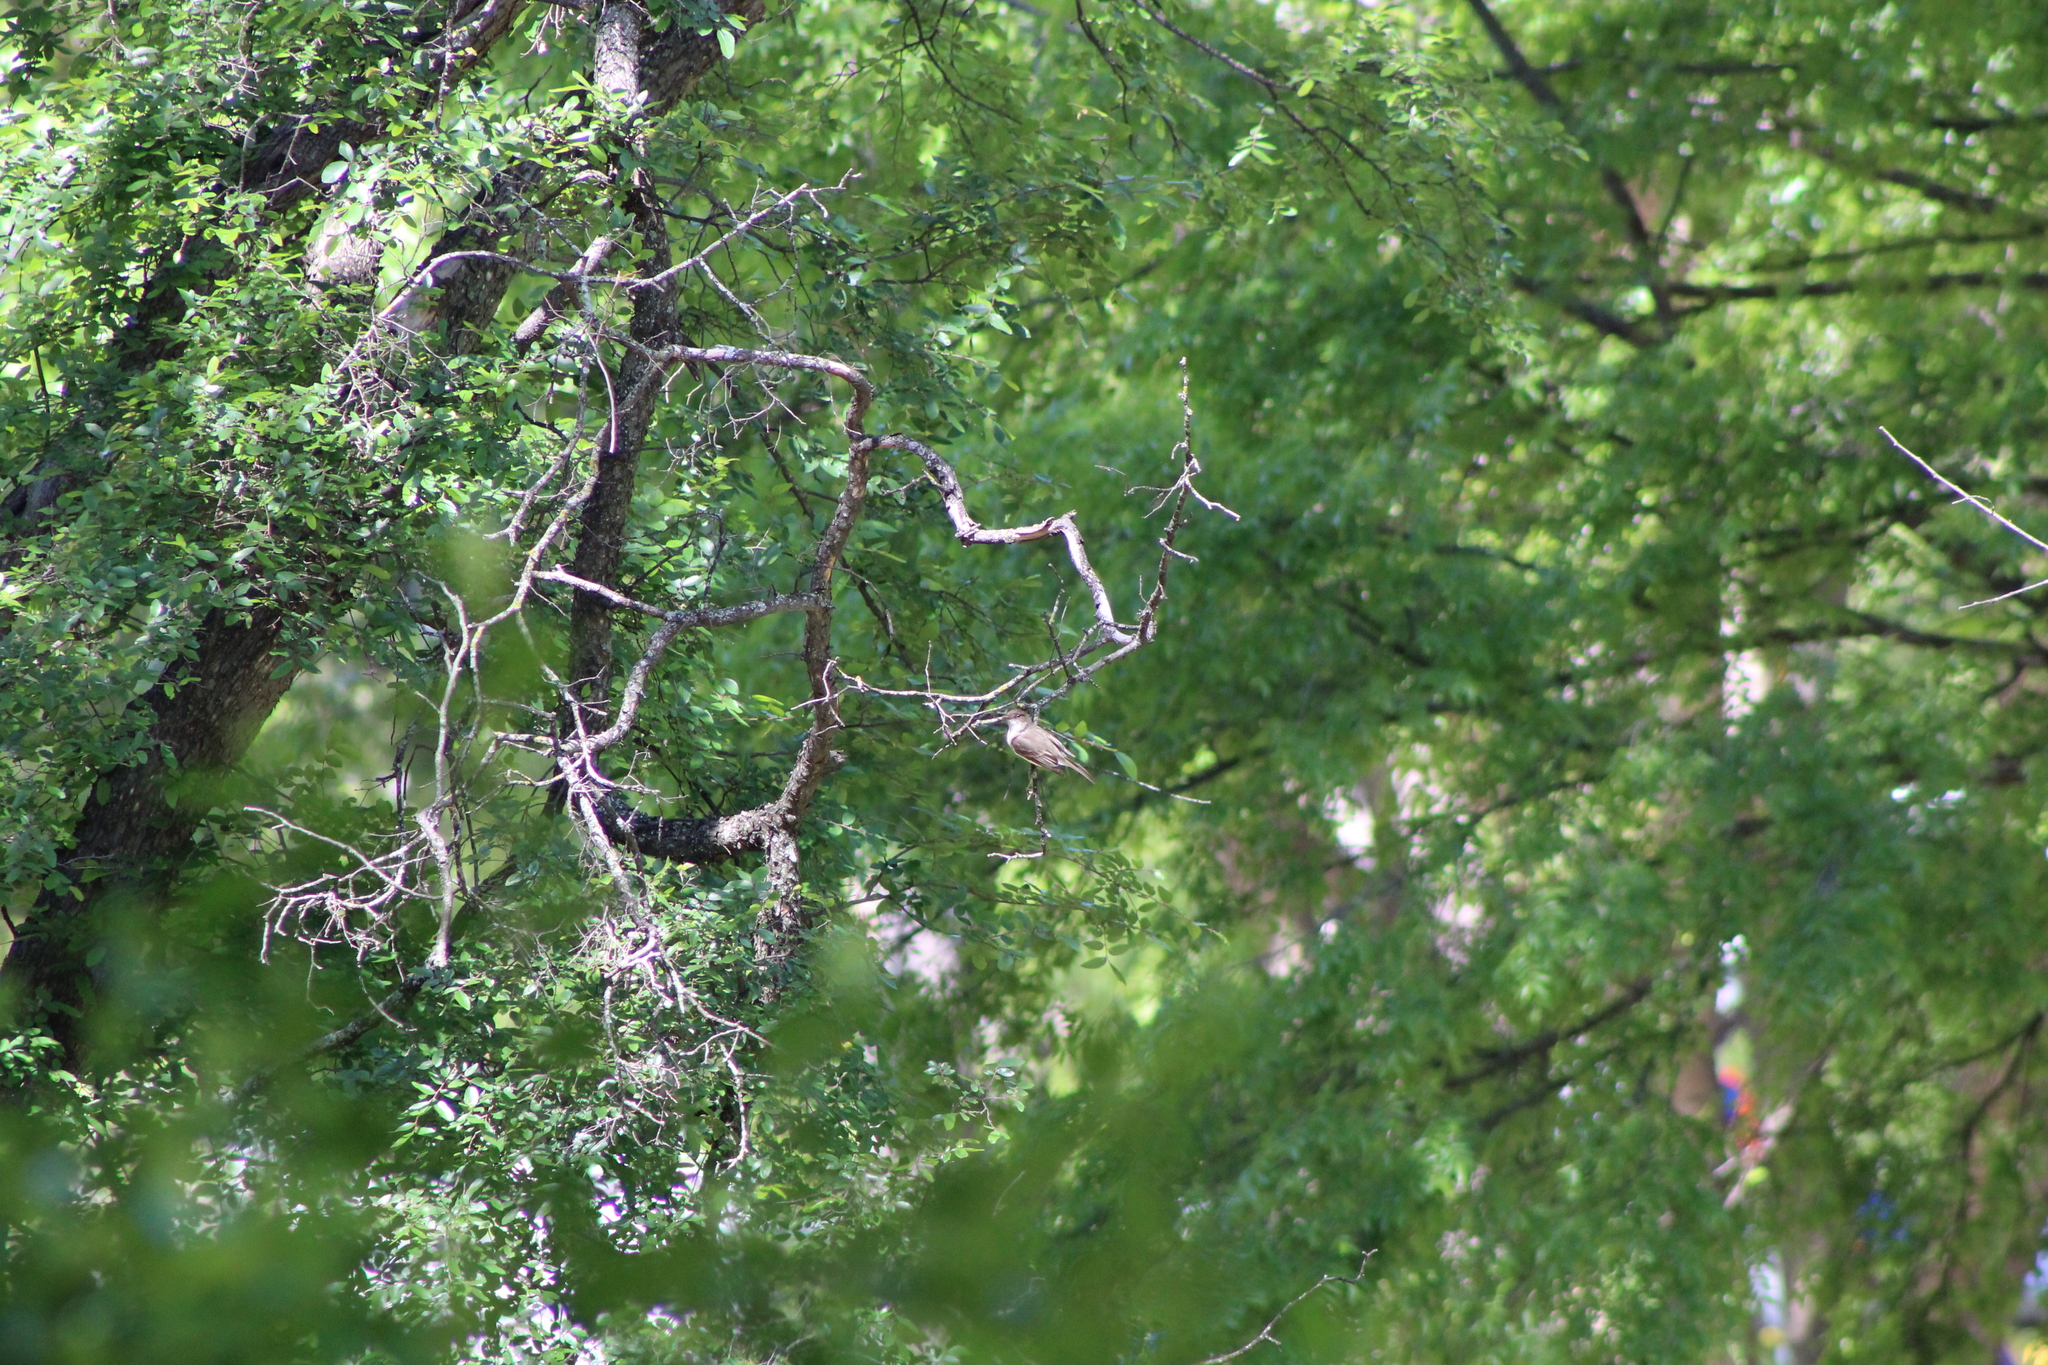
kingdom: Animalia
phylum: Chordata
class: Aves
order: Passeriformes
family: Tyrannidae
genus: Sayornis
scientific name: Sayornis phoebe
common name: Eastern phoebe
